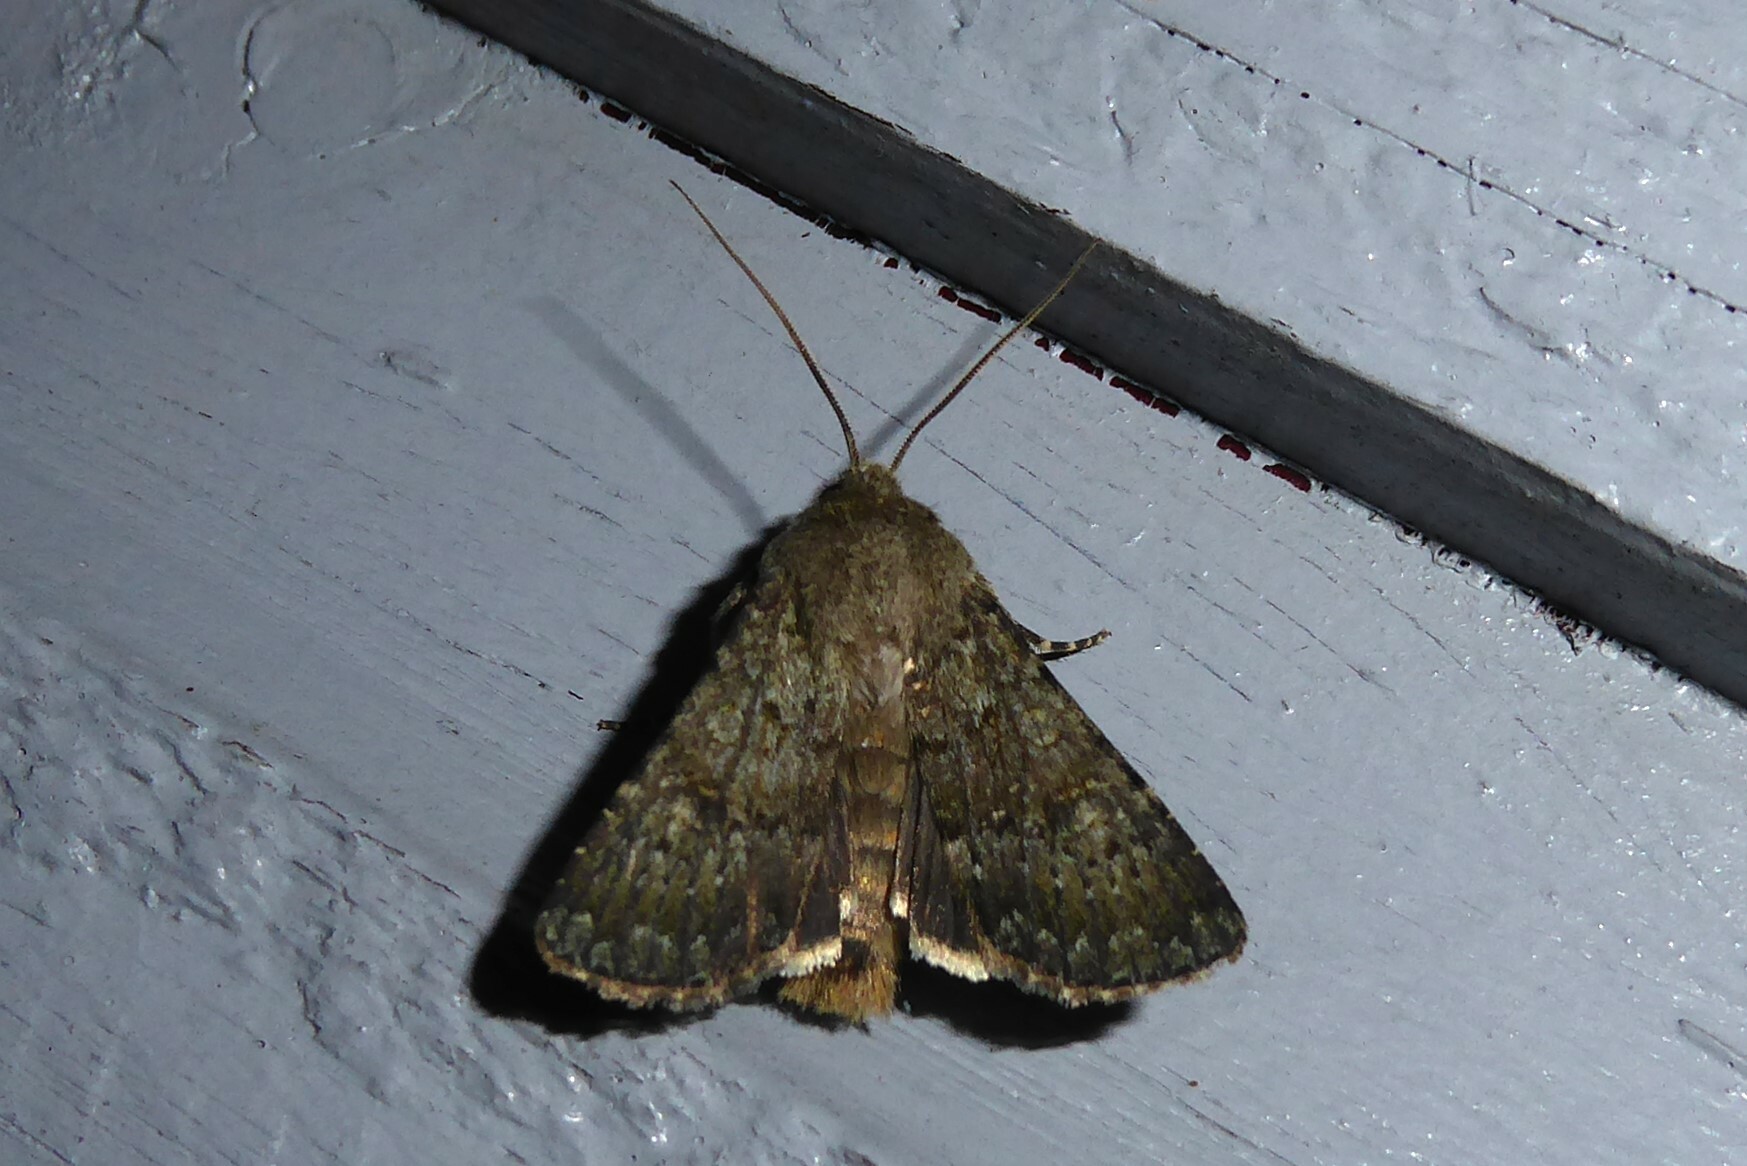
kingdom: Animalia
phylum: Arthropoda
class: Insecta
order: Lepidoptera
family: Noctuidae
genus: Ichneutica
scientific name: Ichneutica moderata
